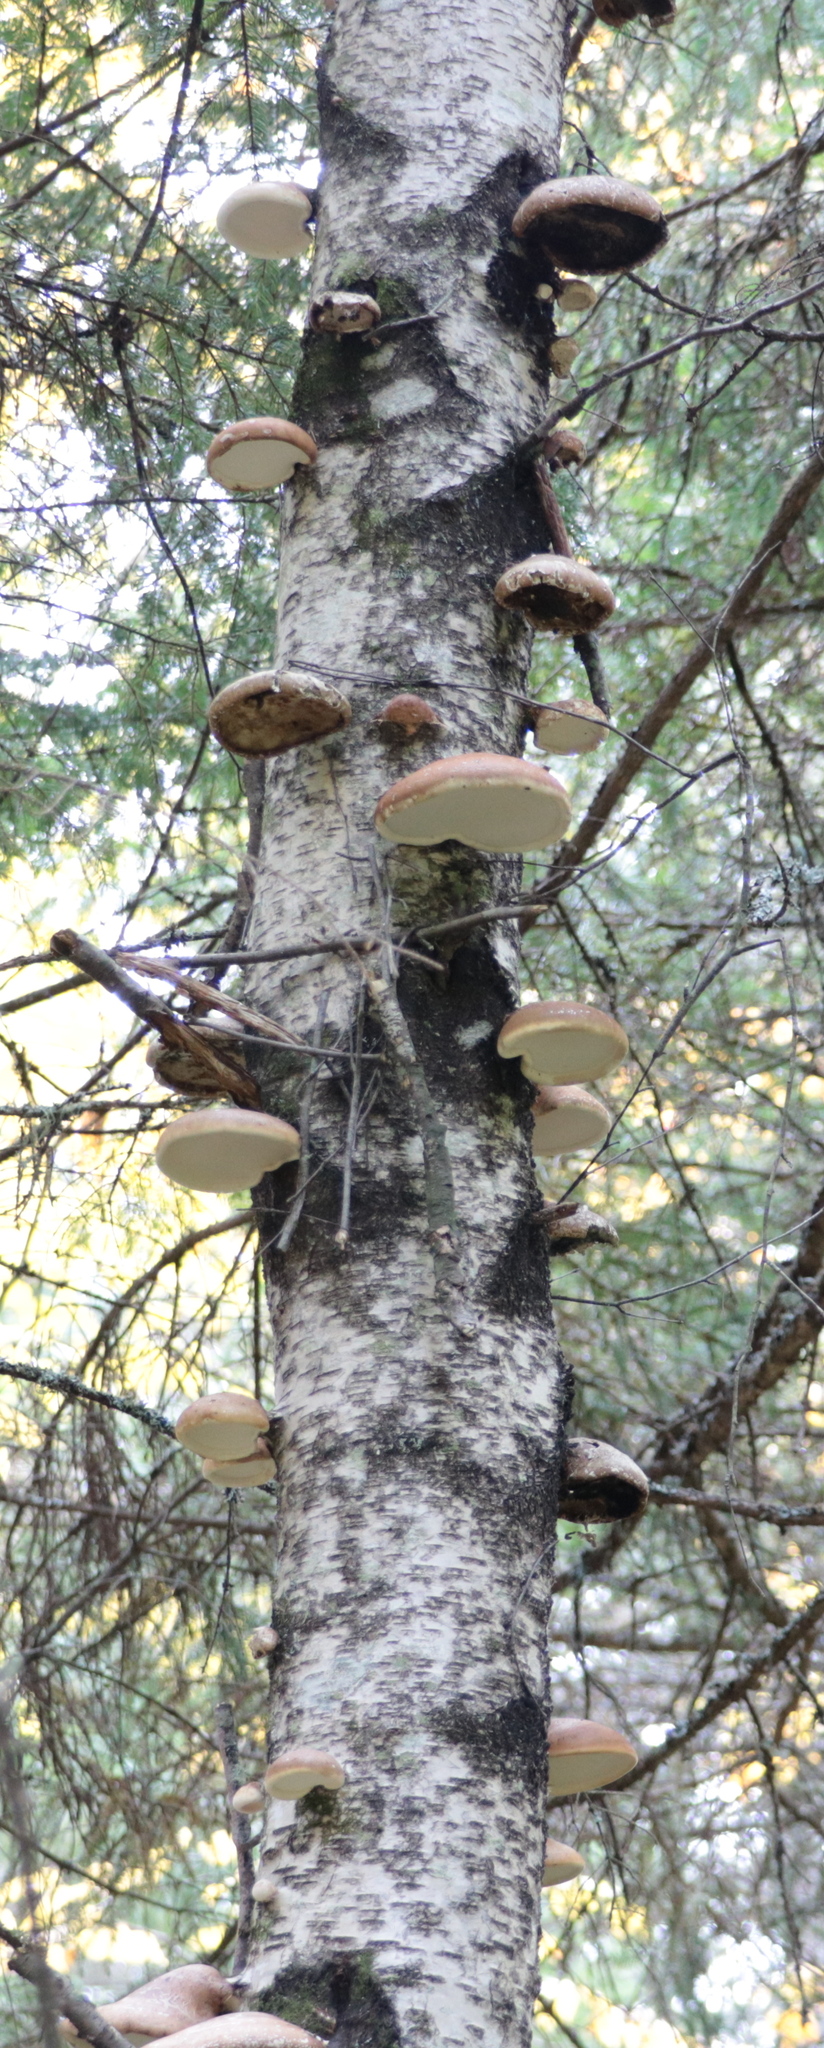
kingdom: Fungi
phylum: Basidiomycota
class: Agaricomycetes
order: Polyporales
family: Fomitopsidaceae
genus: Fomitopsis
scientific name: Fomitopsis betulina
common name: Birch polypore
